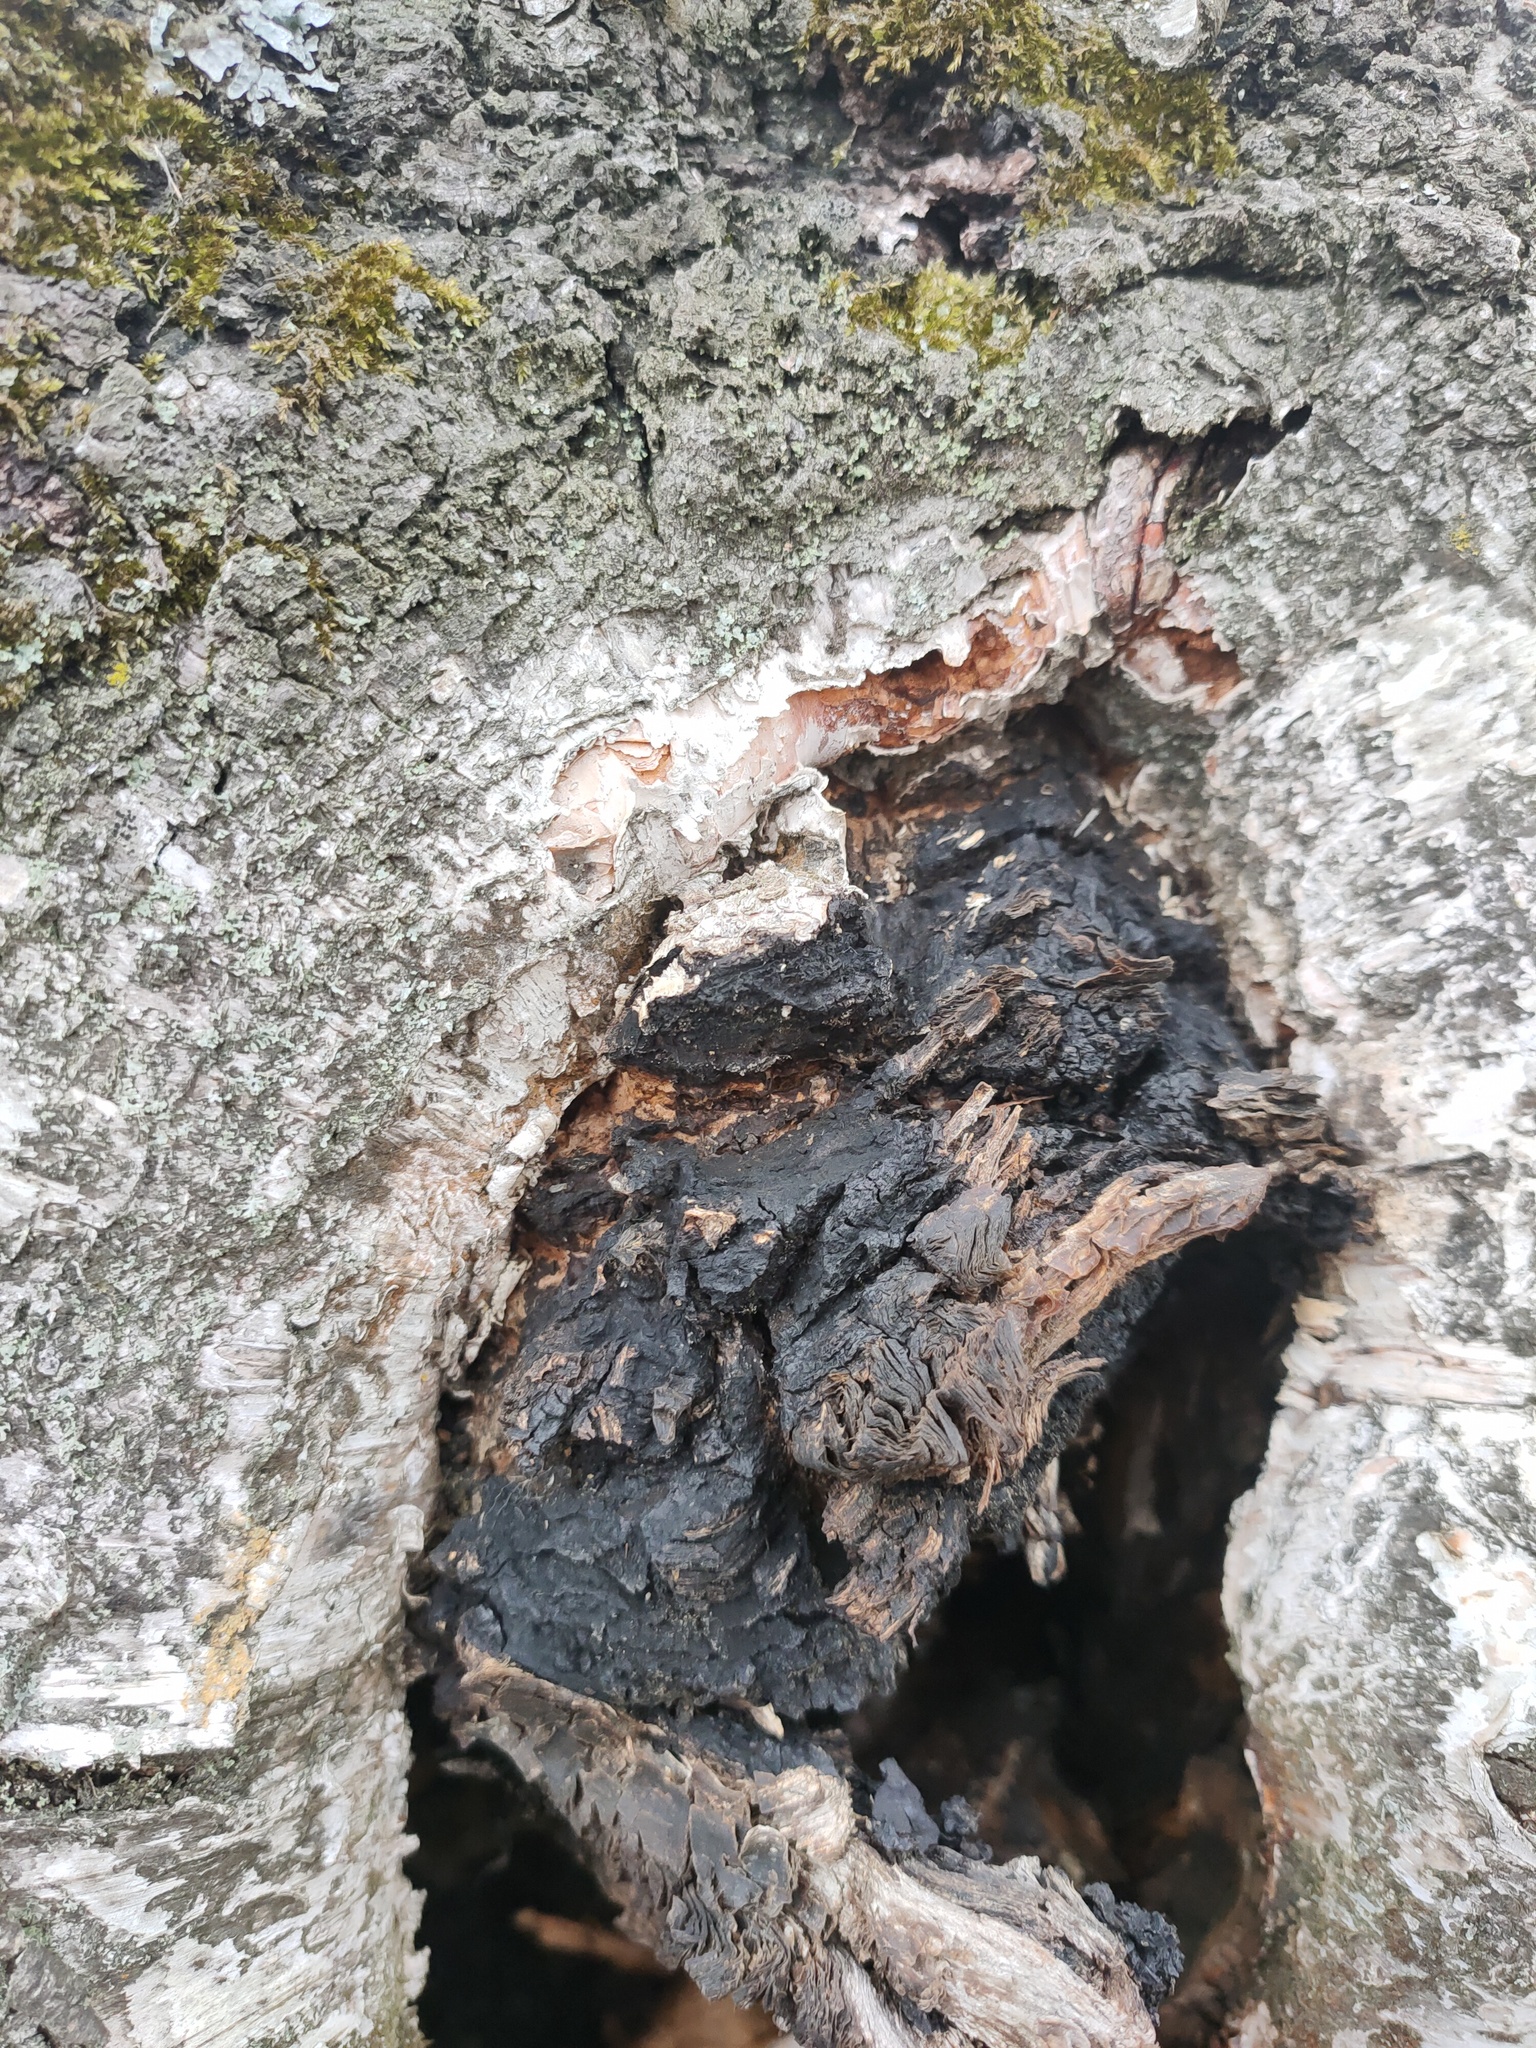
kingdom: Fungi
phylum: Basidiomycota
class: Agaricomycetes
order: Hymenochaetales
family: Hymenochaetaceae
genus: Inonotus
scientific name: Inonotus obliquus
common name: Chaga
